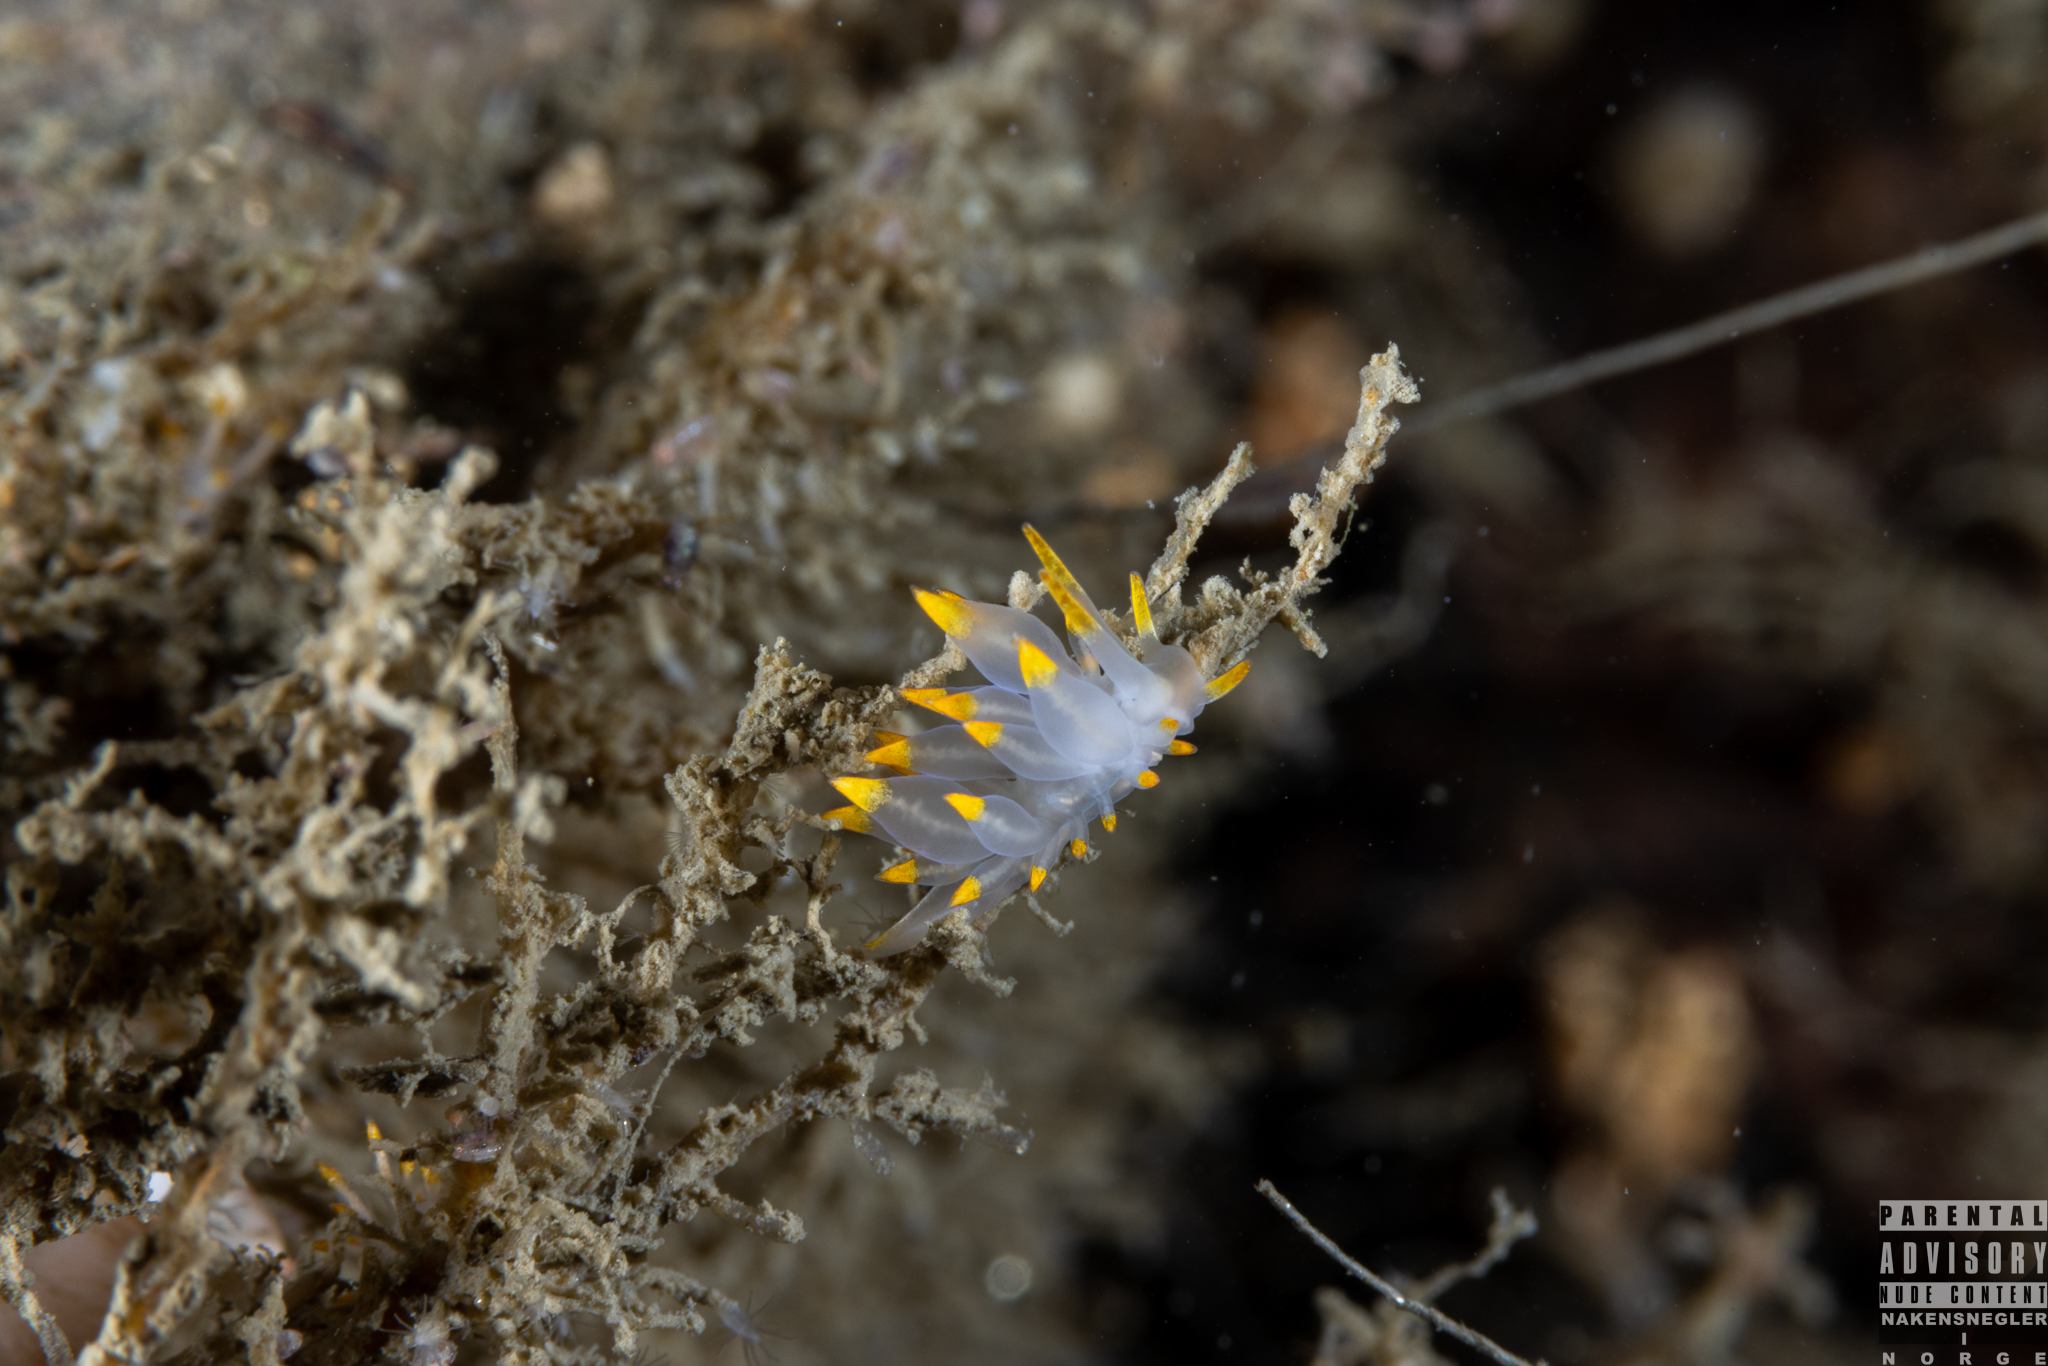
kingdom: Animalia
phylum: Mollusca
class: Gastropoda
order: Nudibranchia
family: Eubranchidae
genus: Amphorina
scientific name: Amphorina farrani
